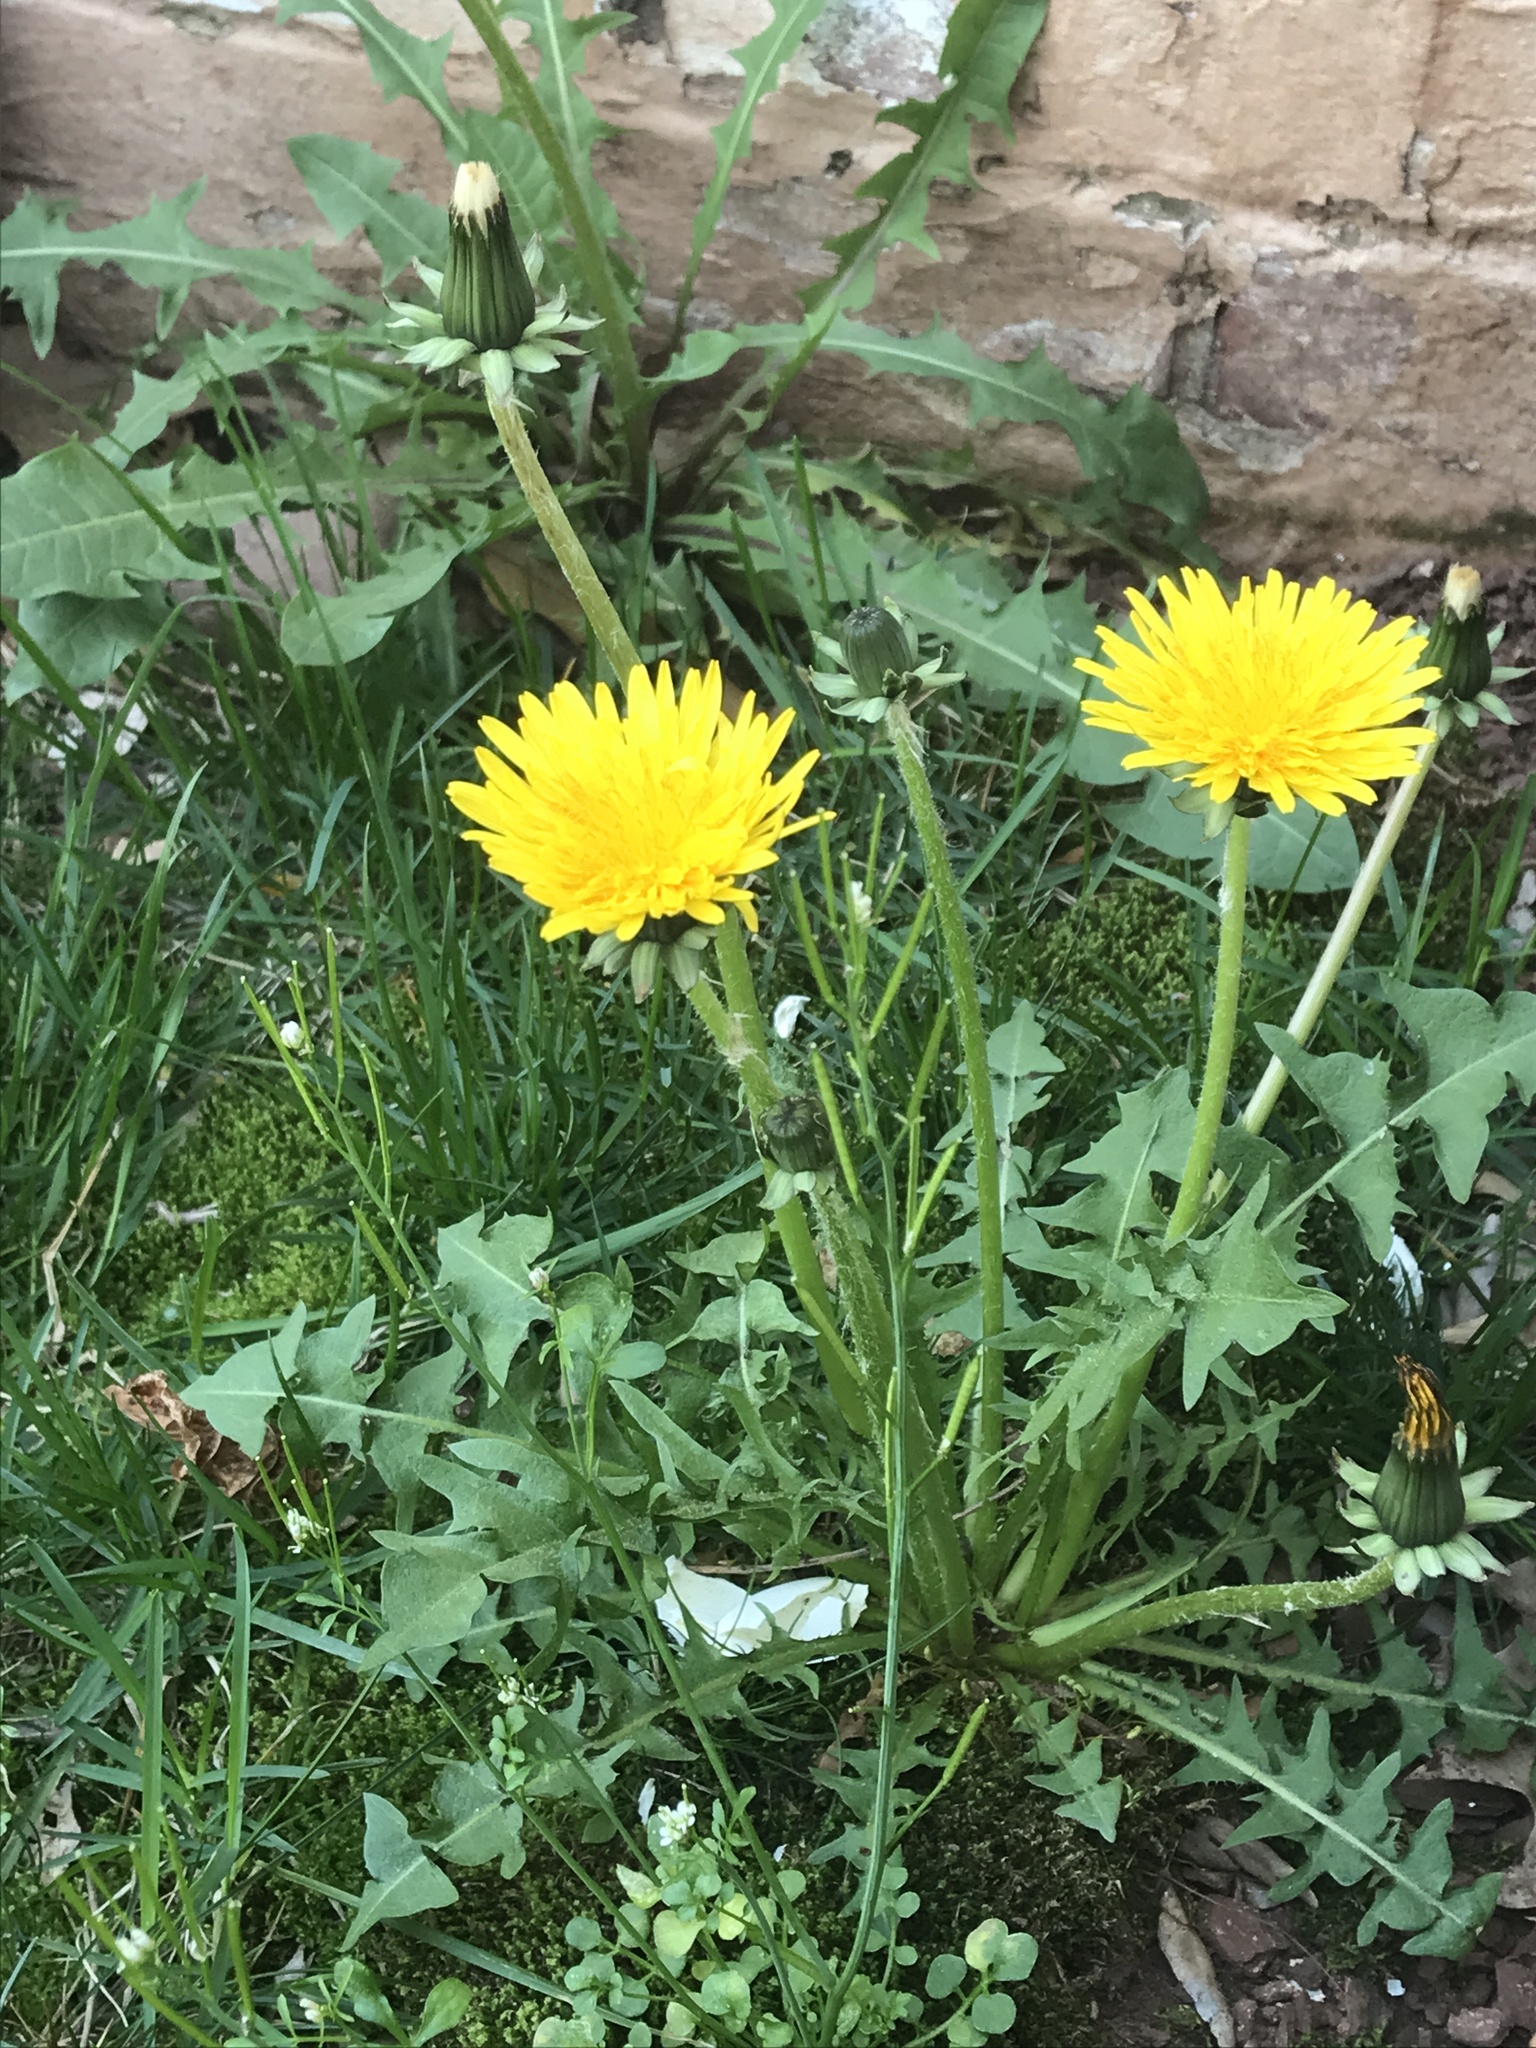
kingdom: Plantae
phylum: Tracheophyta
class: Magnoliopsida
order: Asterales
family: Asteraceae
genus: Taraxacum
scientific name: Taraxacum
